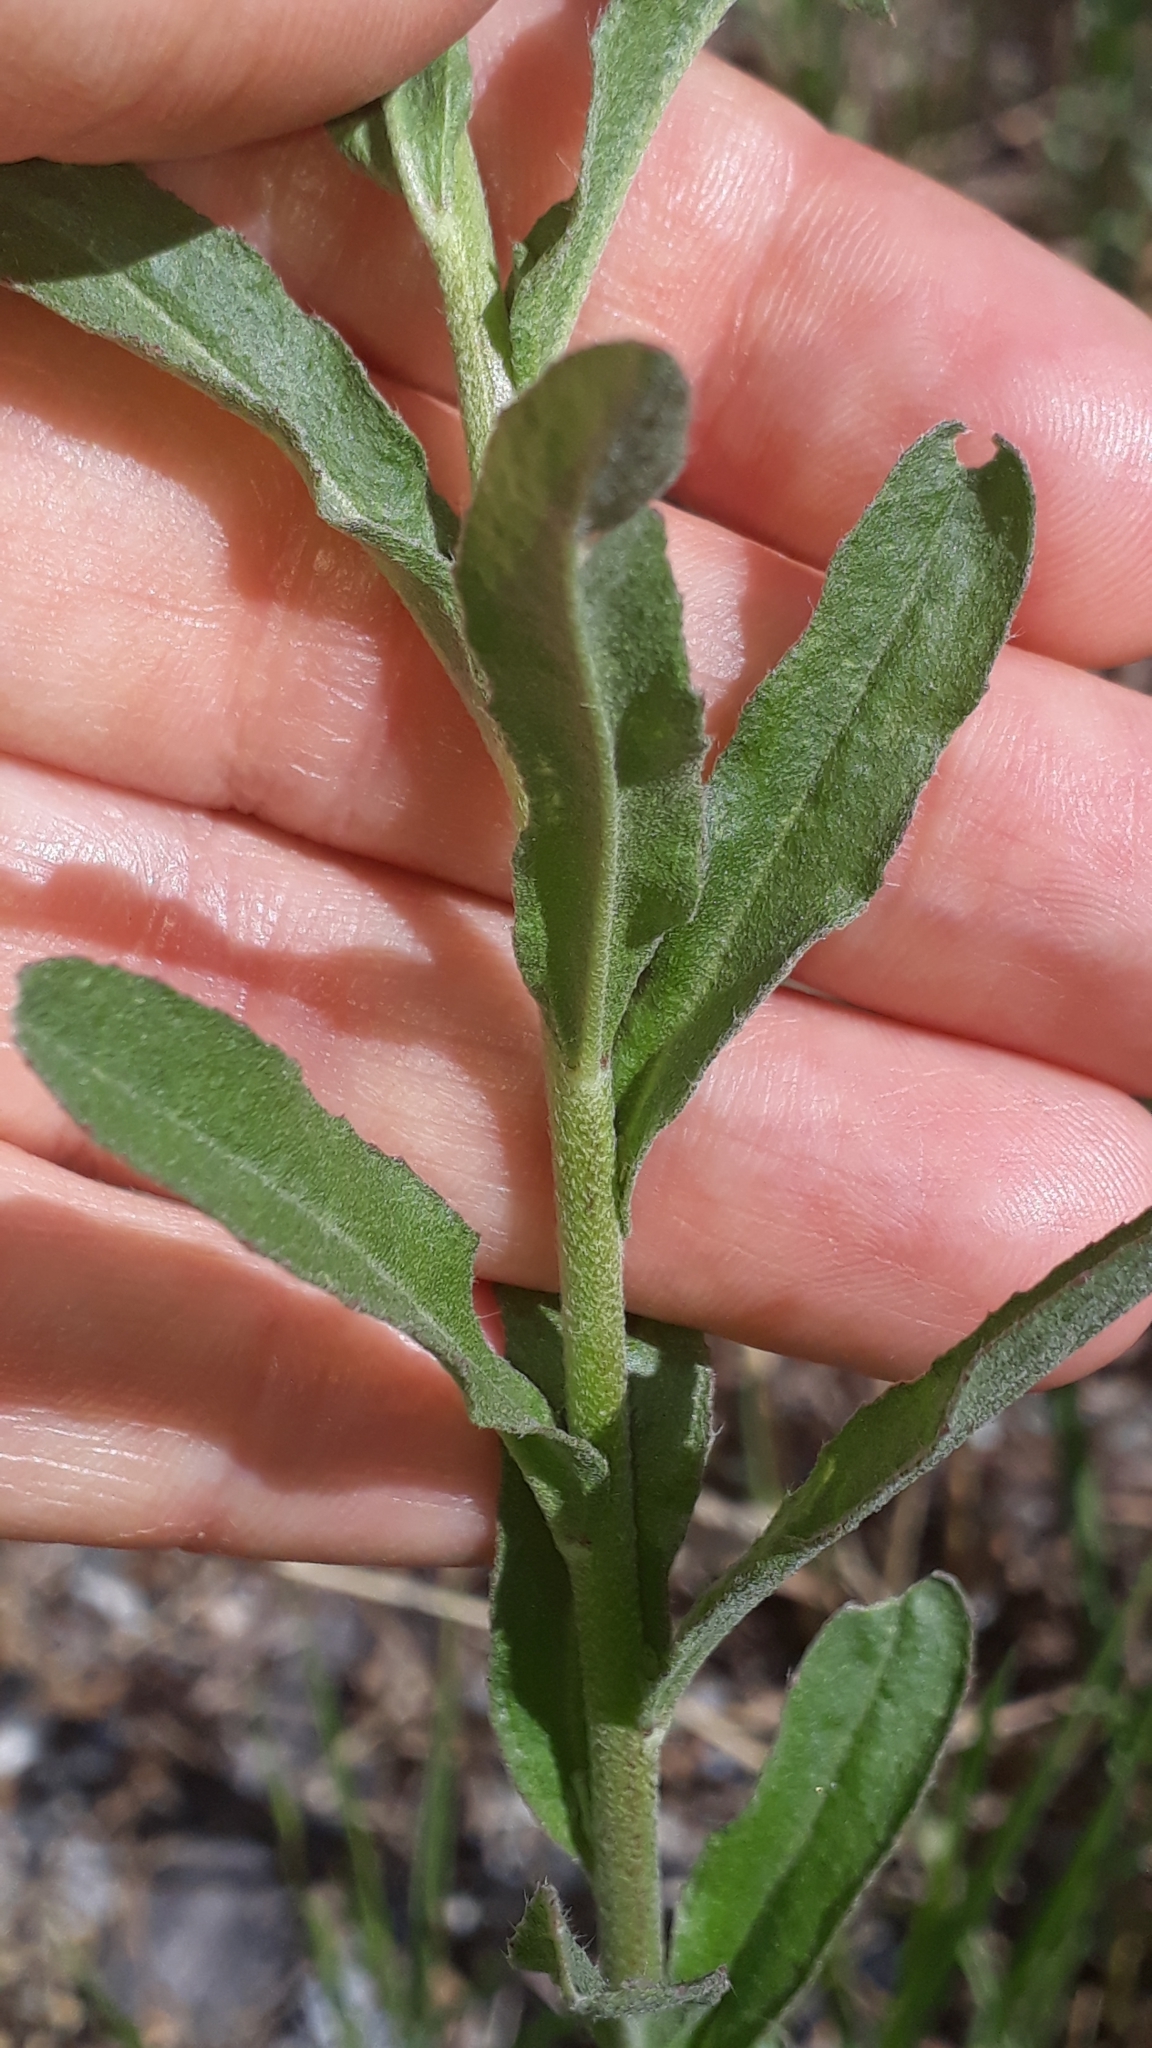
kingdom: Plantae
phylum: Tracheophyta
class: Magnoliopsida
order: Brassicales
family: Brassicaceae
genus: Berteroa
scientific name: Berteroa incana
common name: Hoary alison
